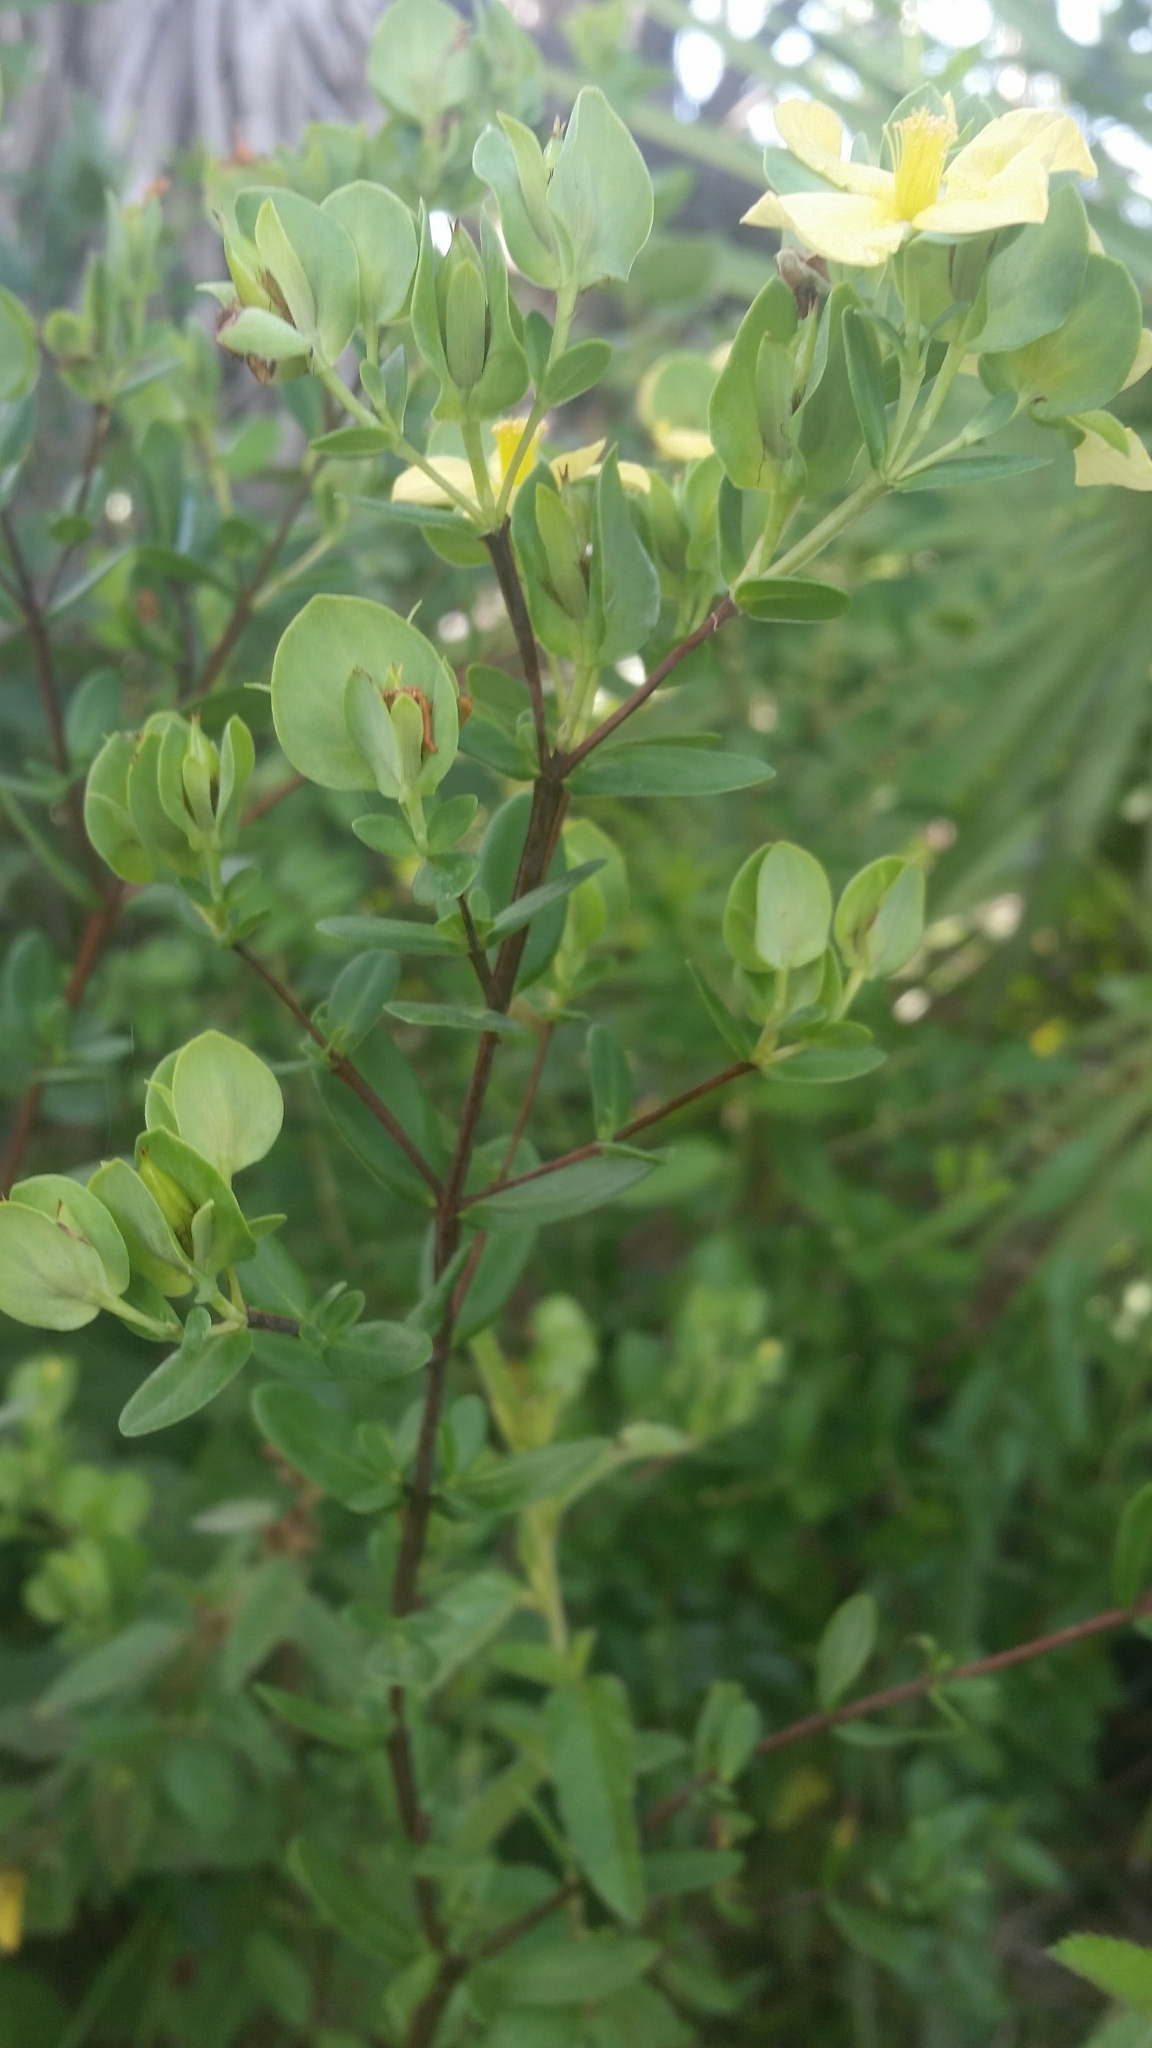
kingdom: Plantae
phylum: Tracheophyta
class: Magnoliopsida
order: Malpighiales
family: Hypericaceae
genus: Hypericum
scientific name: Hypericum crux-andreae
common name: St.-peter's-wort
